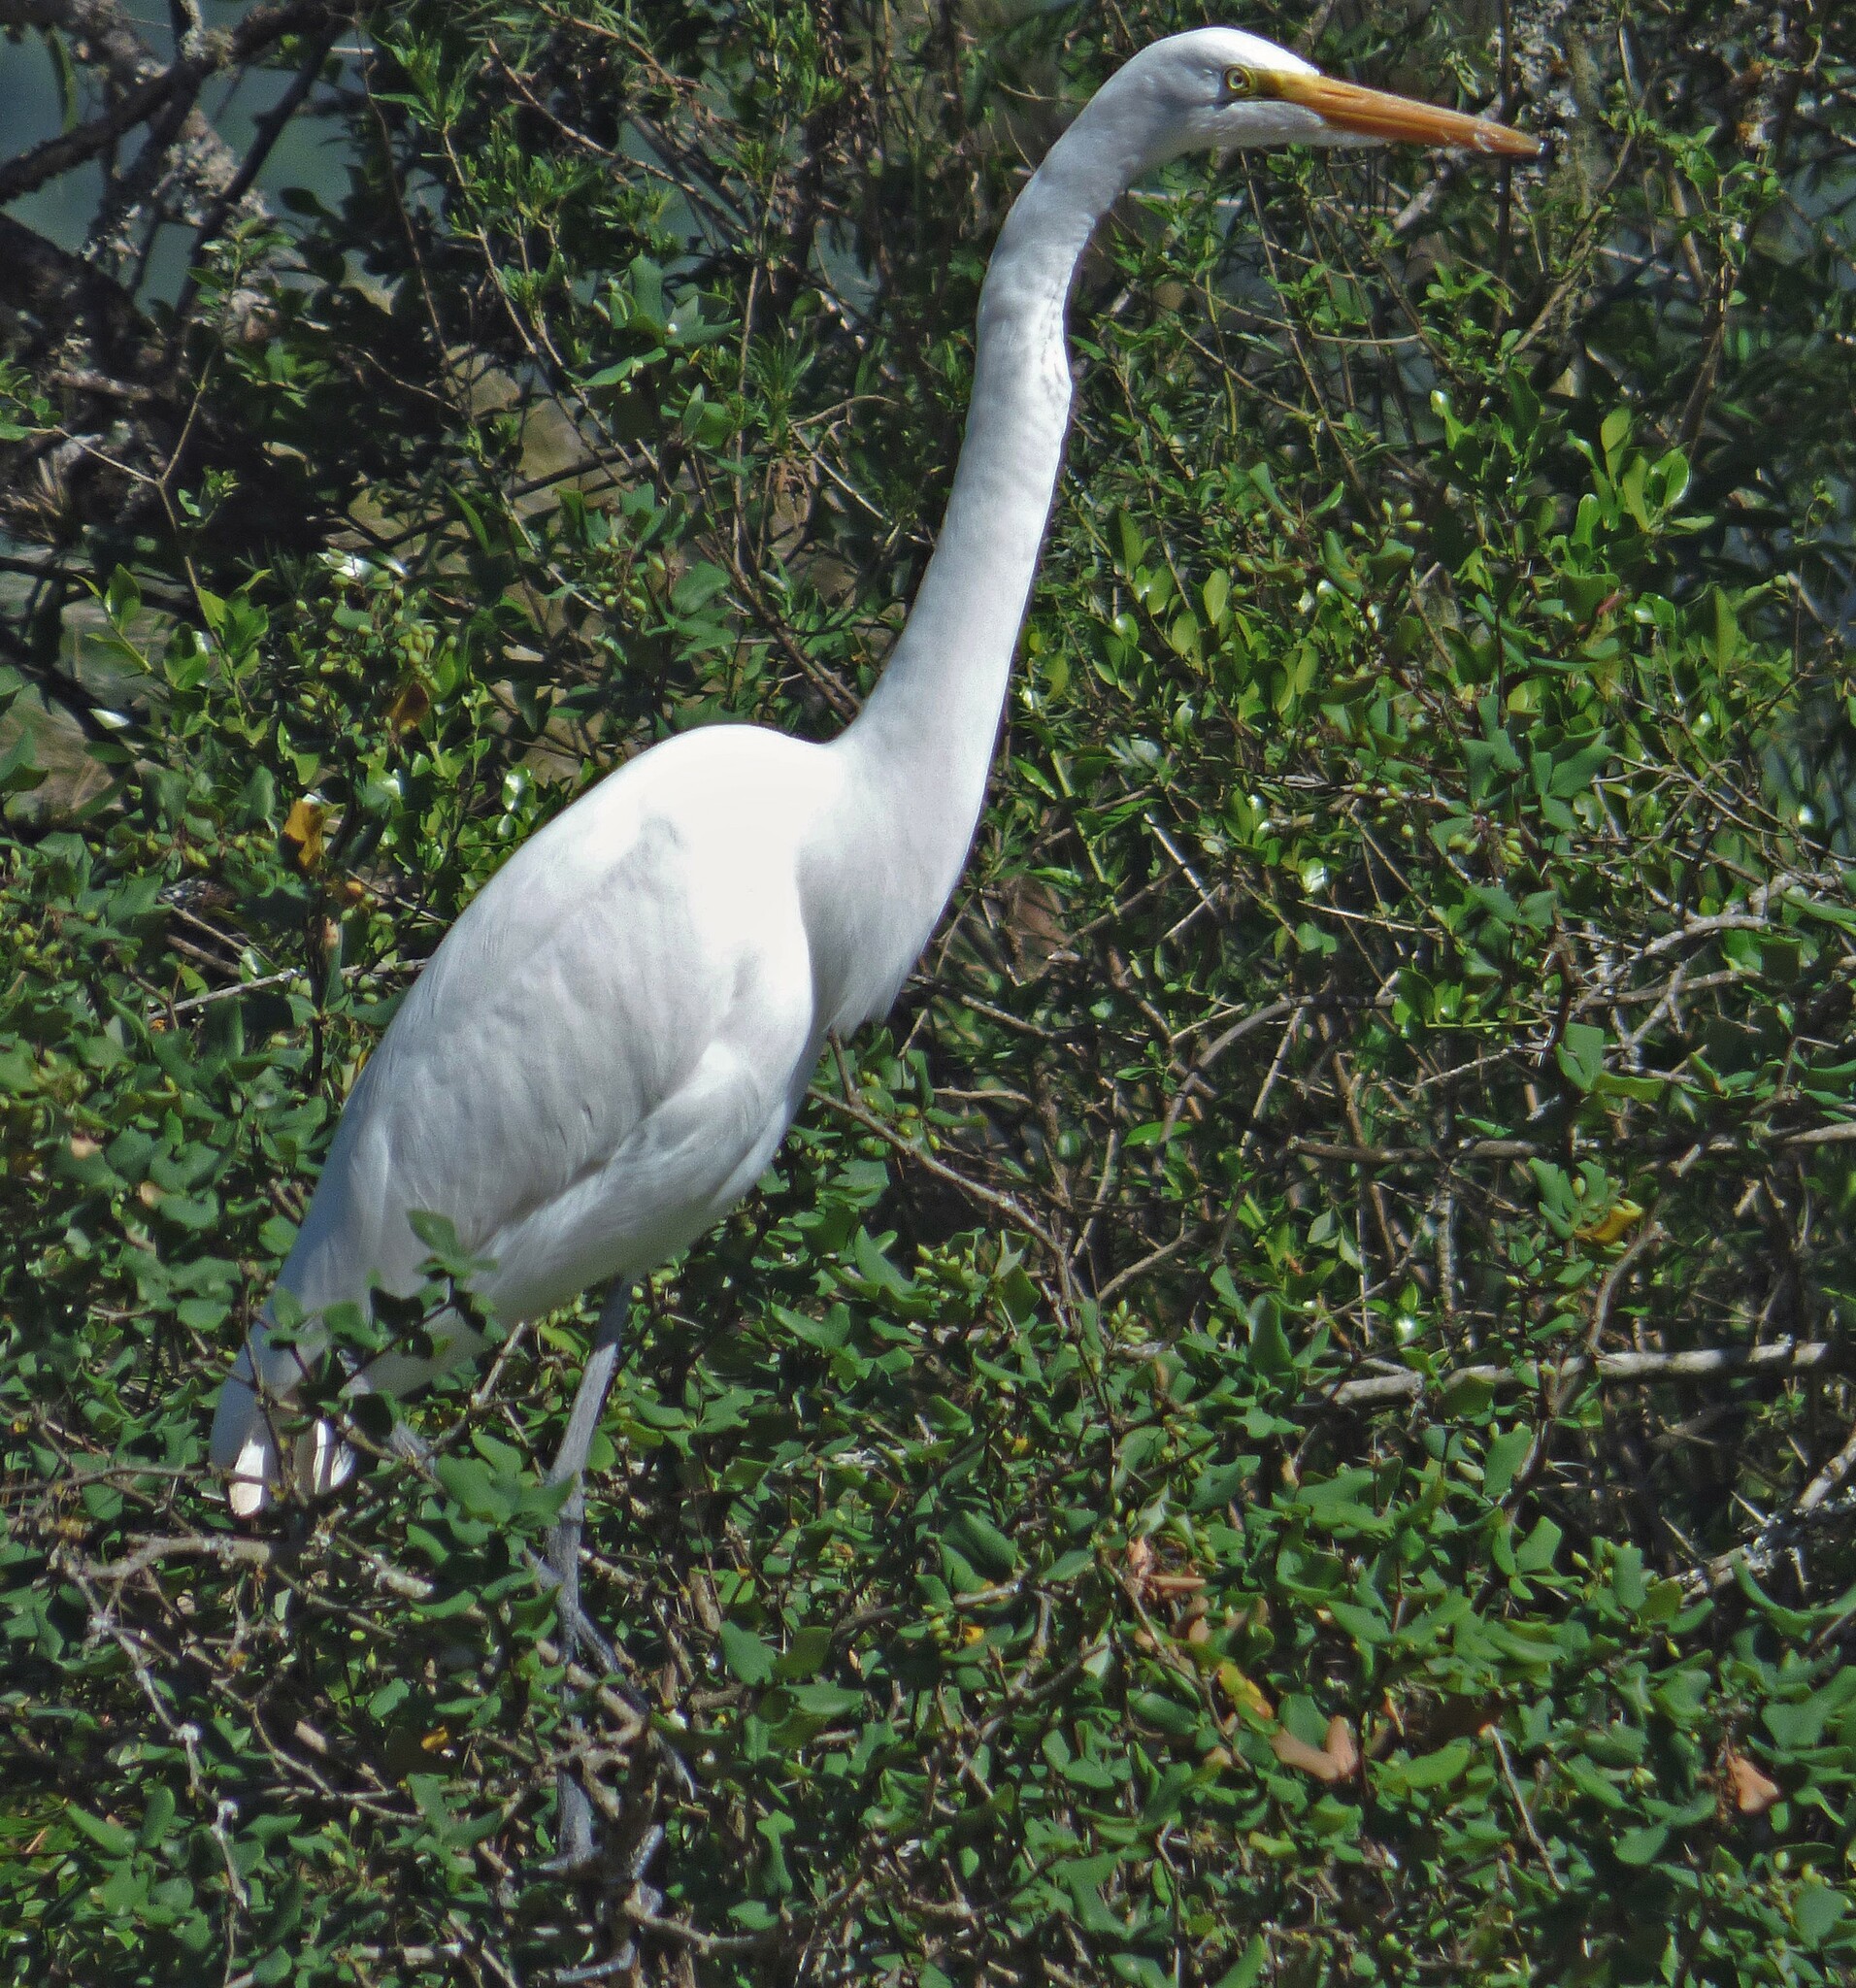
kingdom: Animalia
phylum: Chordata
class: Aves
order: Pelecaniformes
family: Ardeidae
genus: Ardea
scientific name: Ardea alba
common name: Great egret
